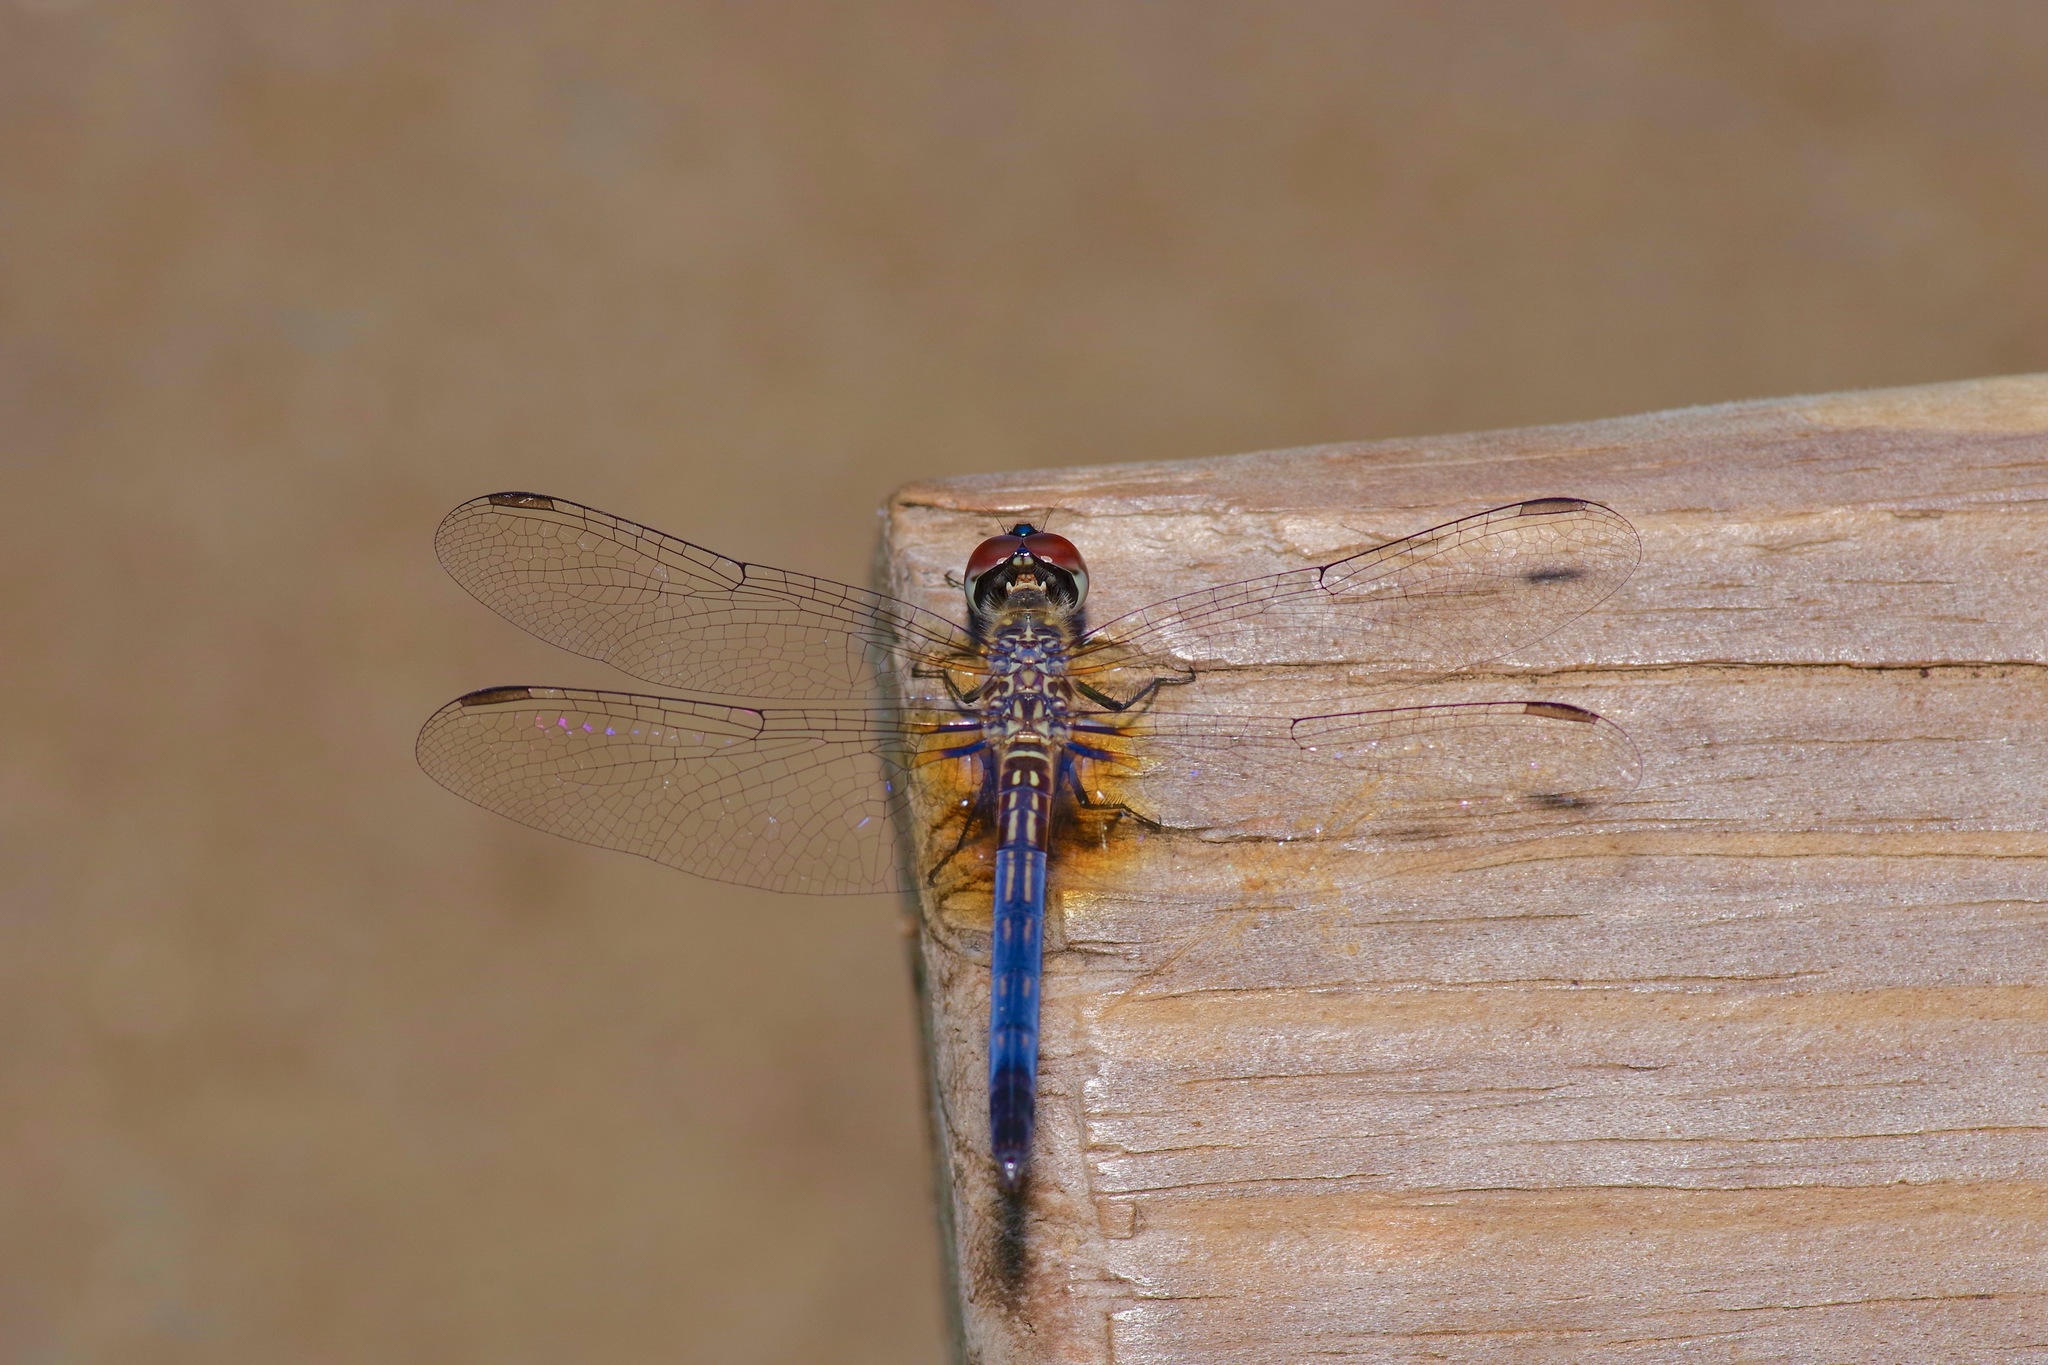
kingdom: Animalia
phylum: Arthropoda
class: Insecta
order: Odonata
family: Libellulidae
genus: Pachydiplax
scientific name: Pachydiplax longipennis
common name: Blue dasher
